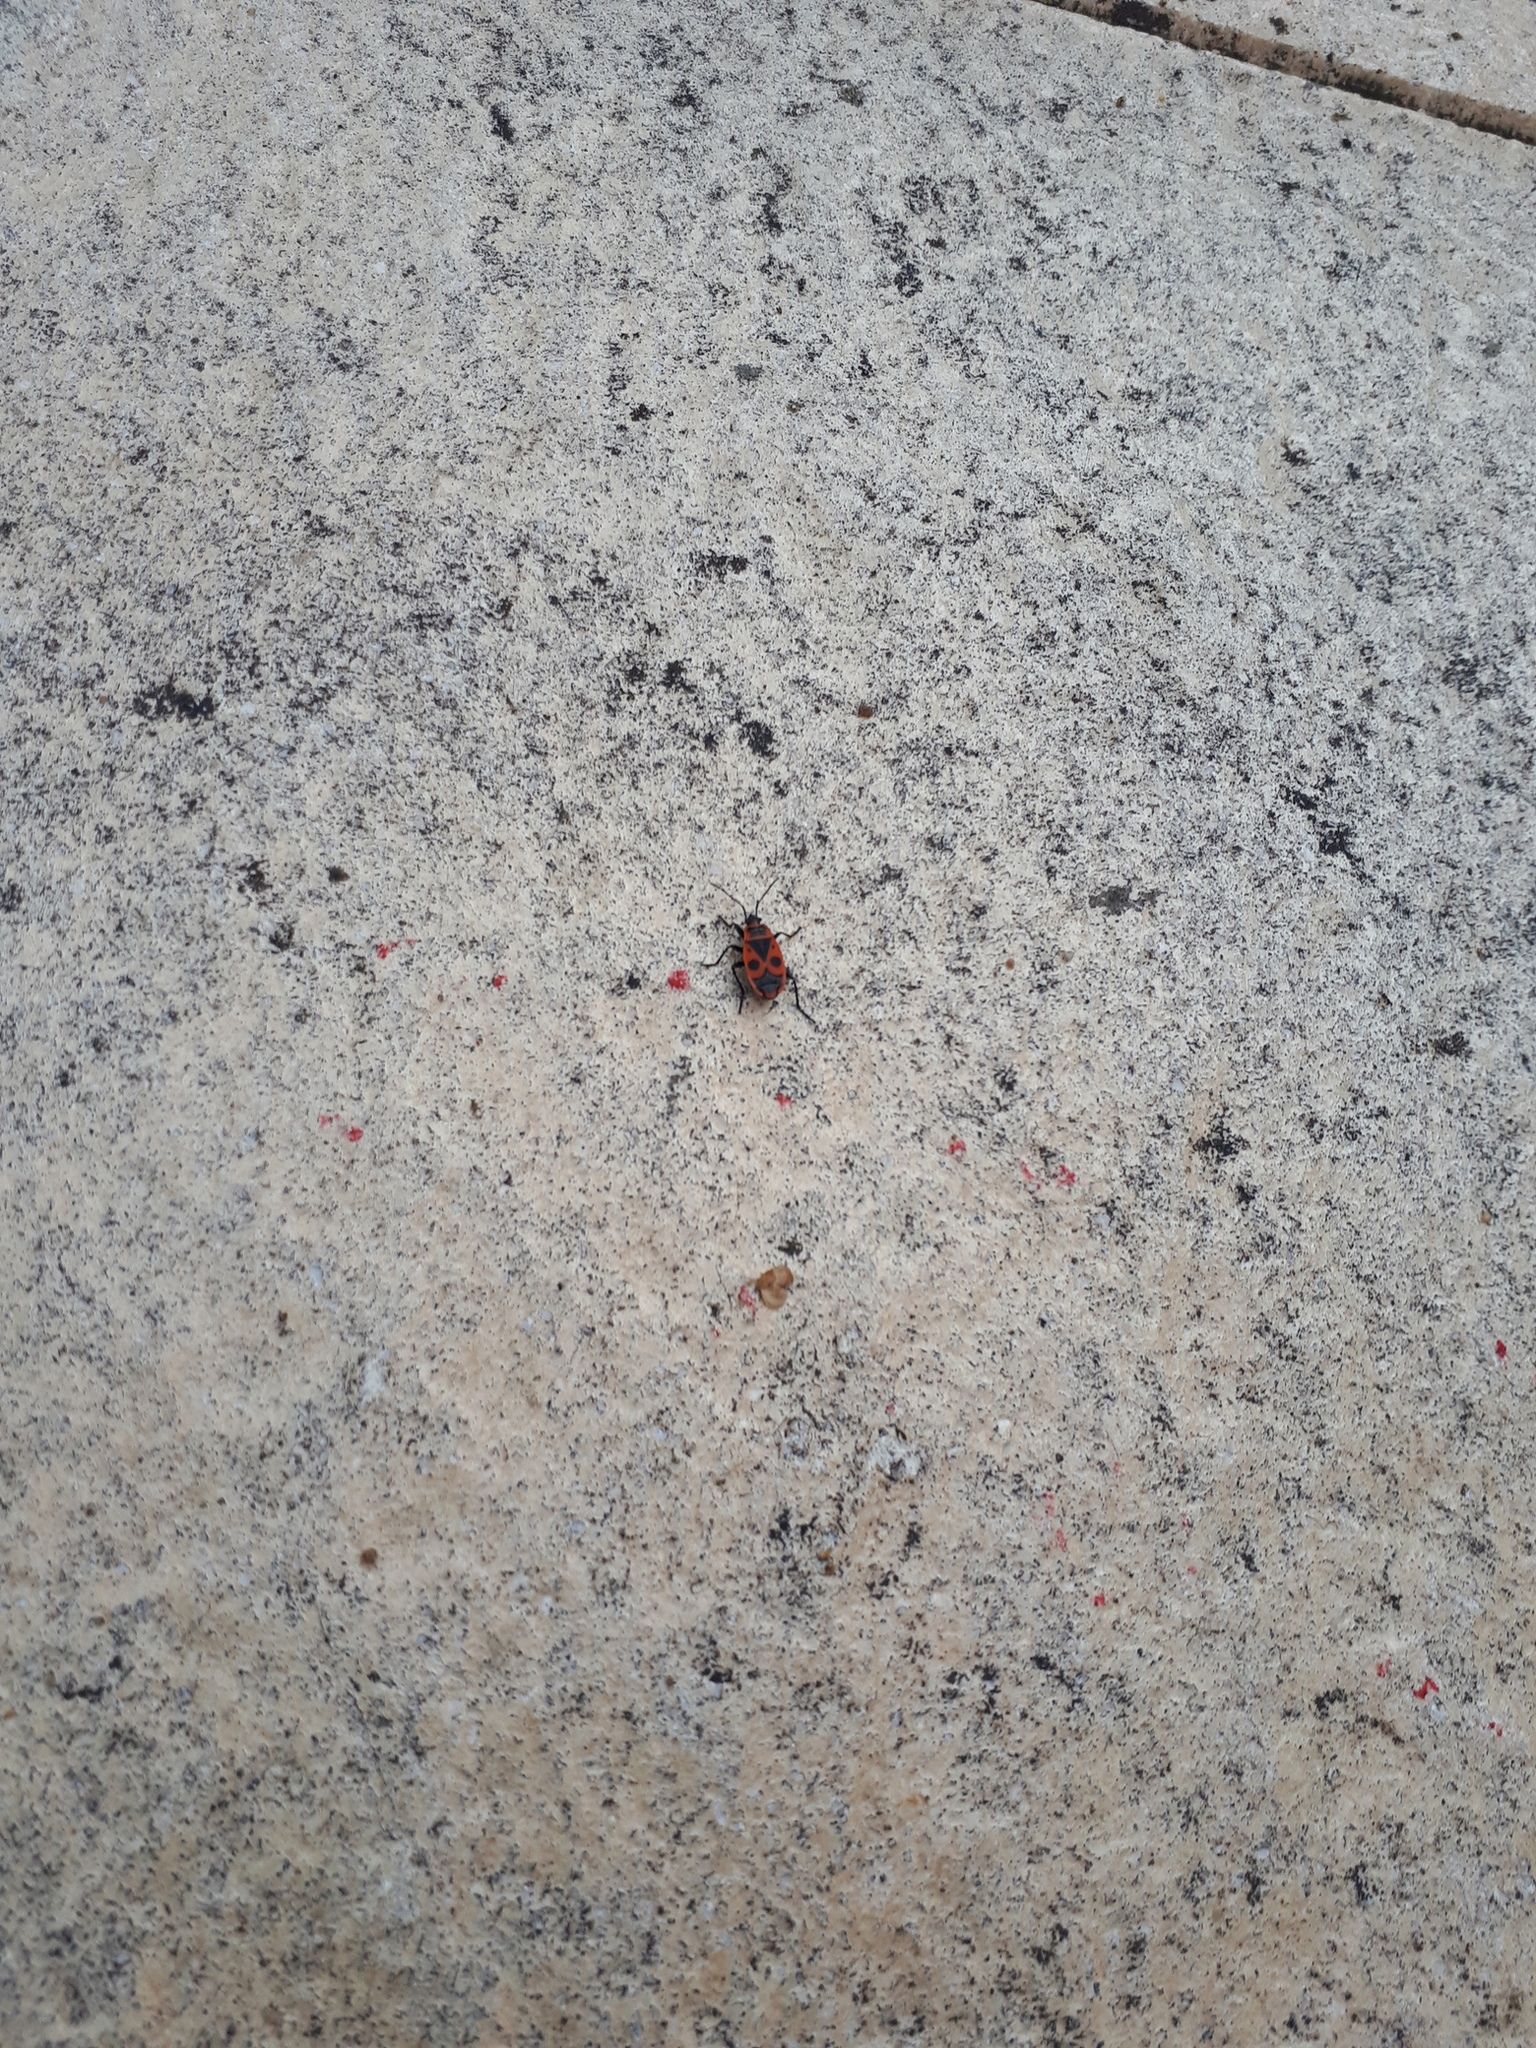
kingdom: Animalia
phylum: Arthropoda
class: Insecta
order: Hemiptera
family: Pyrrhocoridae
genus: Pyrrhocoris
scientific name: Pyrrhocoris apterus
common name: Firebug
